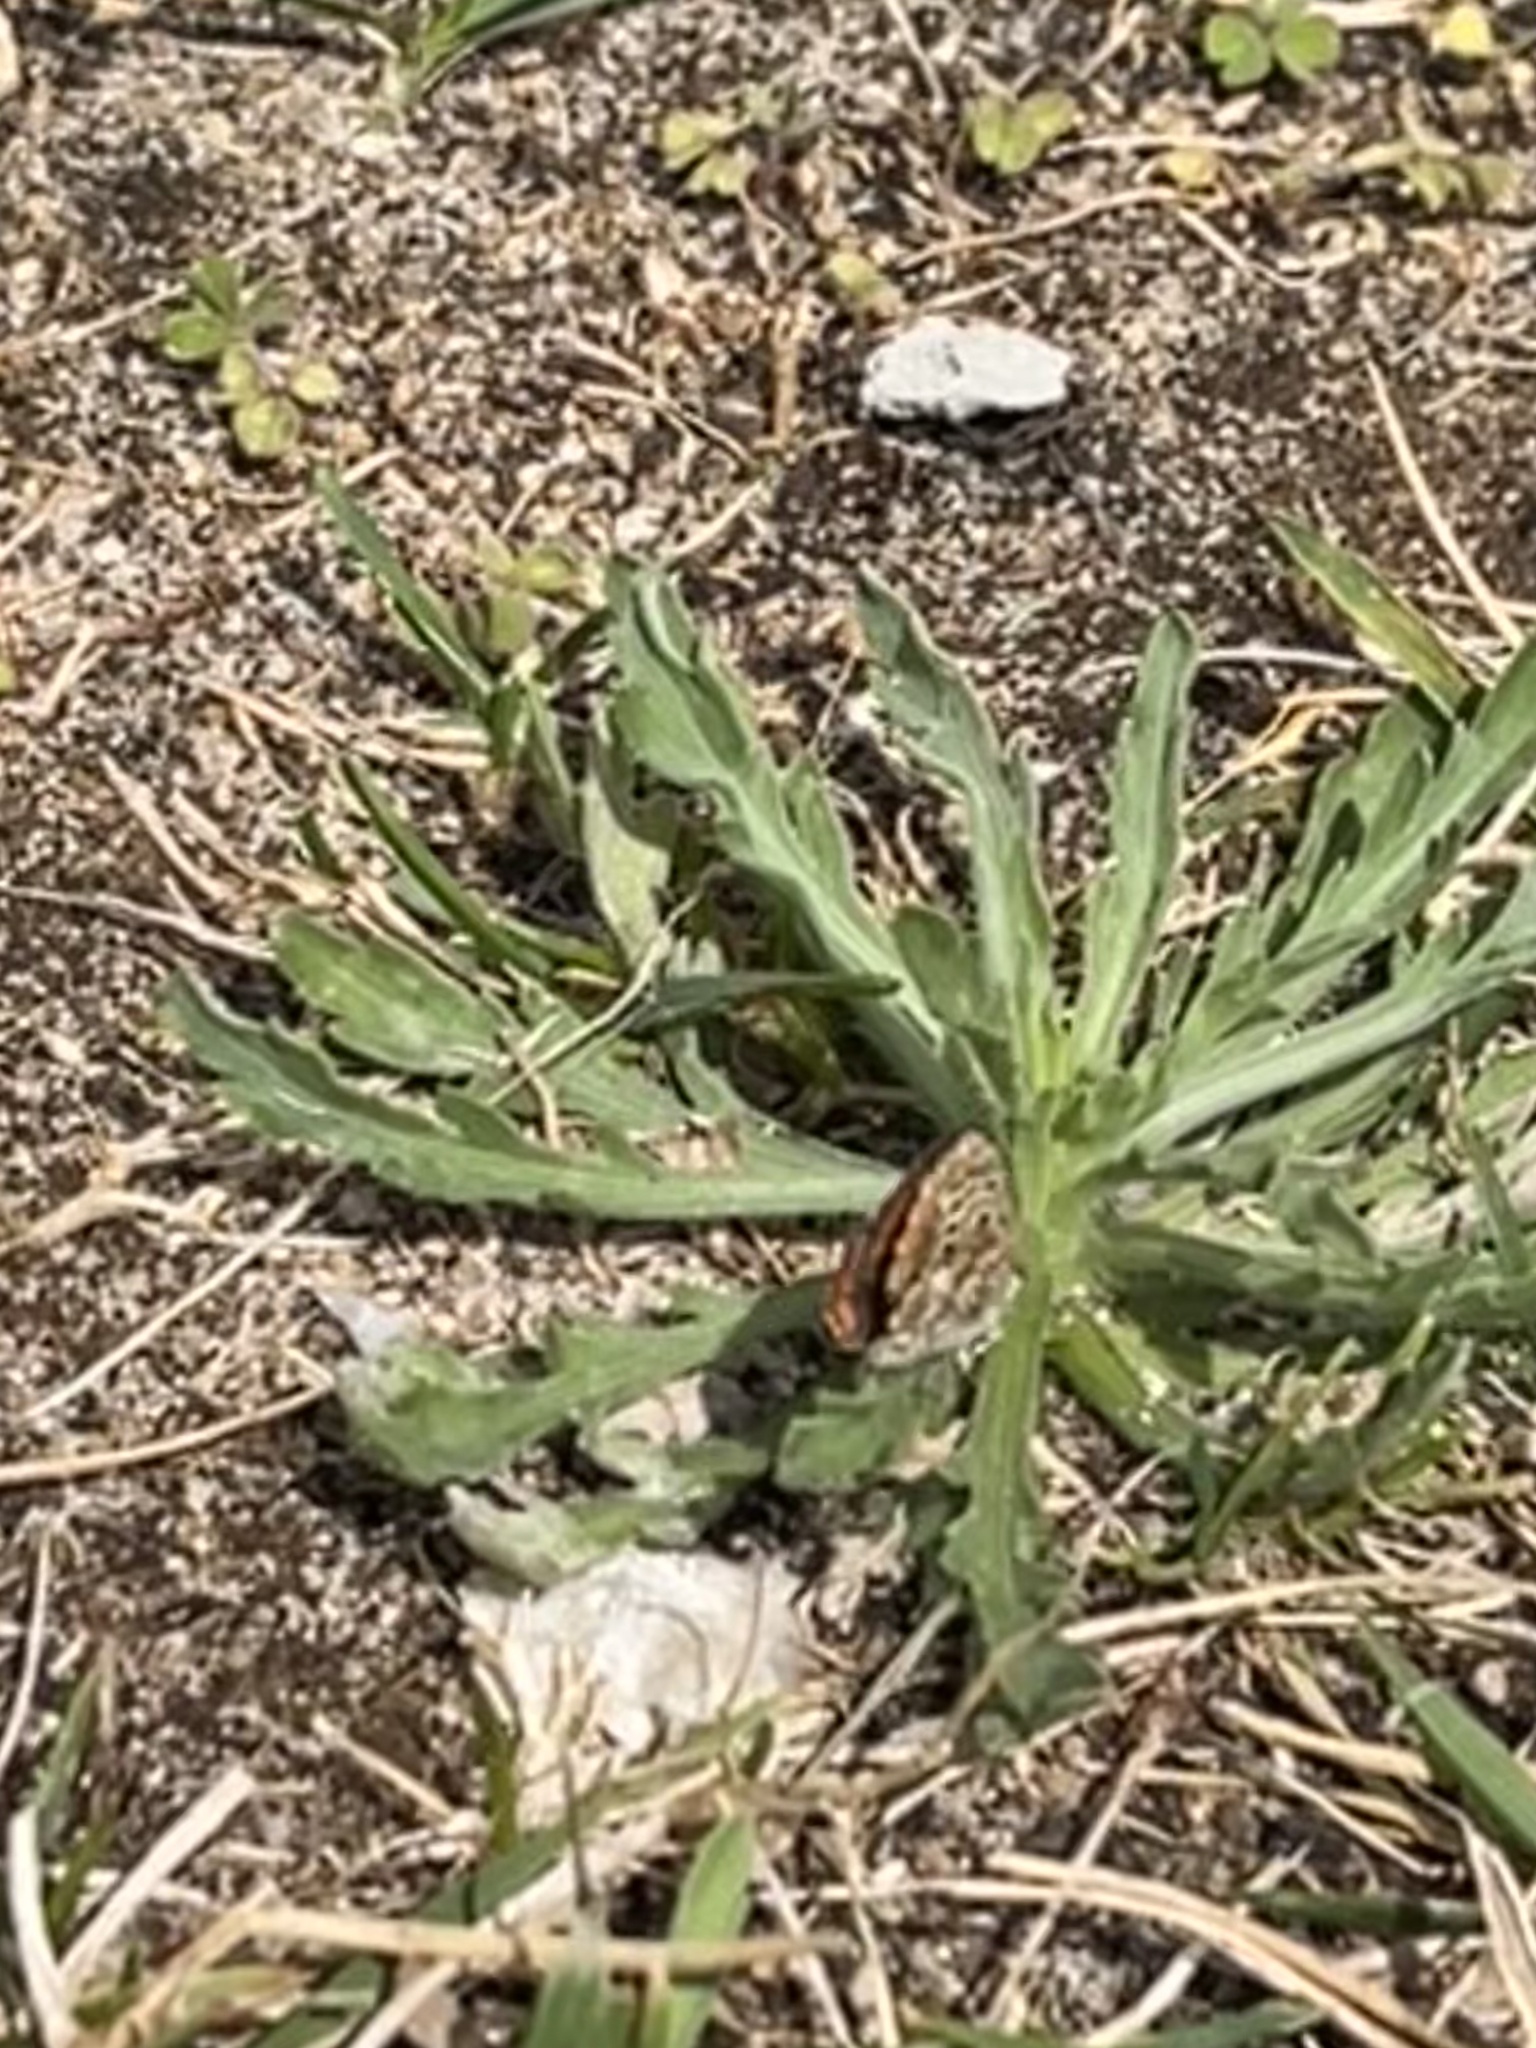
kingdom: Animalia
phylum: Arthropoda
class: Insecta
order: Lepidoptera
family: Lycaenidae
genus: Aricia
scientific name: Aricia cramera
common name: Eschscholtz´s brown  argus
